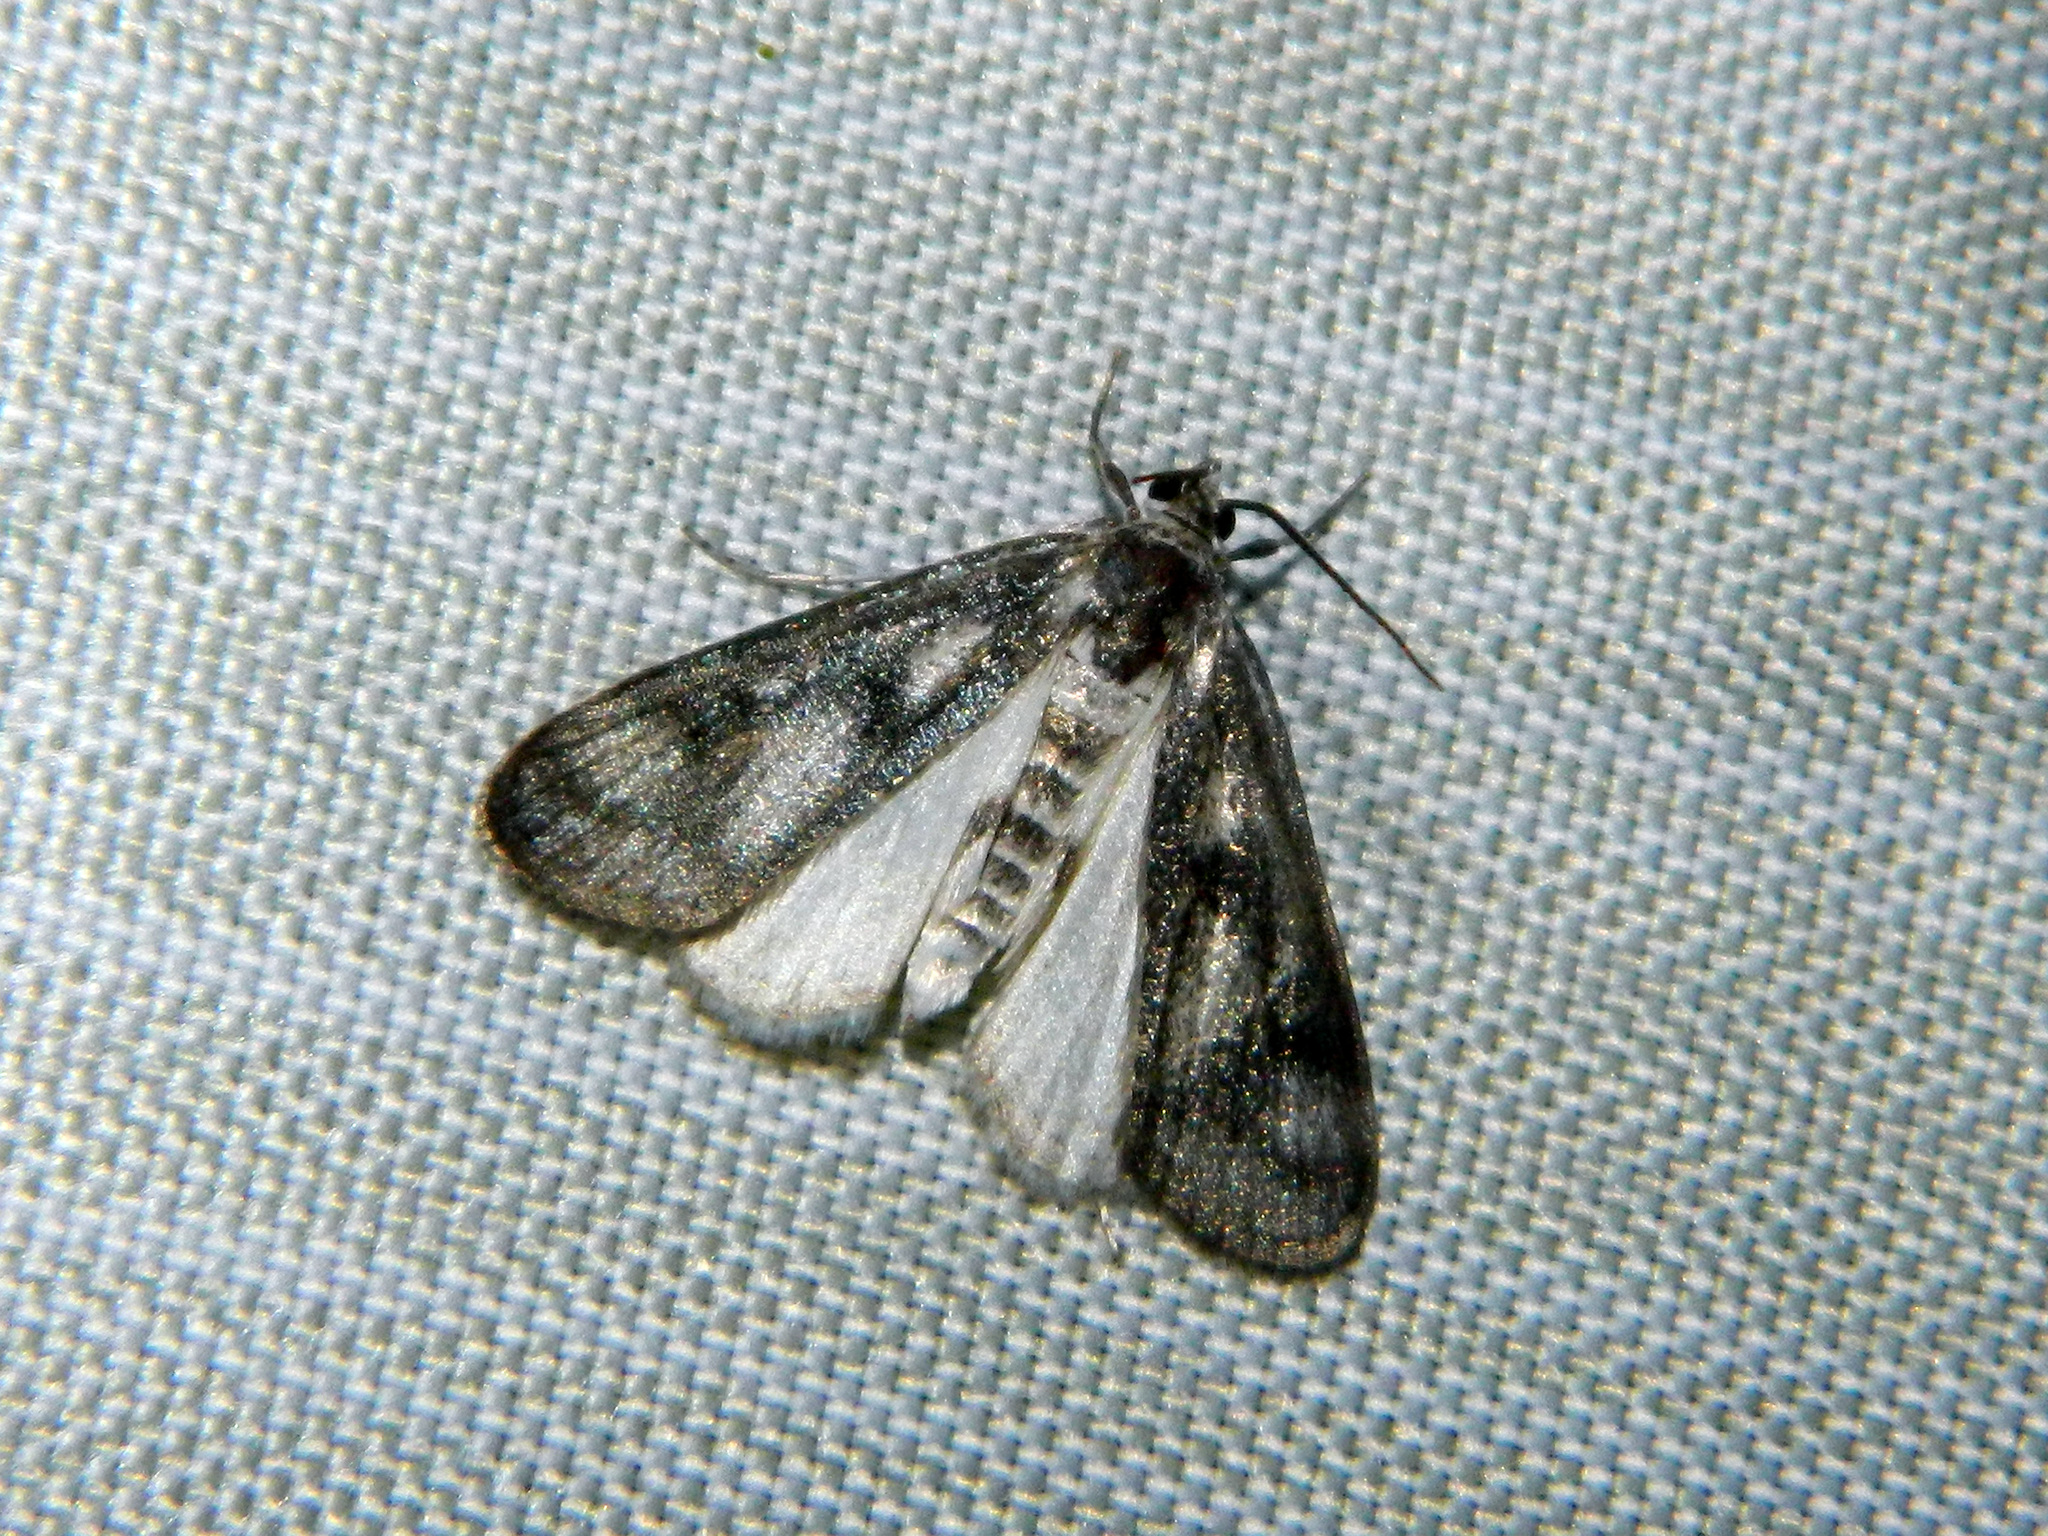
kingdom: Animalia
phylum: Arthropoda
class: Insecta
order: Lepidoptera
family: Crambidae
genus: Parapoynx
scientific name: Parapoynx maculalis
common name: Polymorphic pondweed moth
